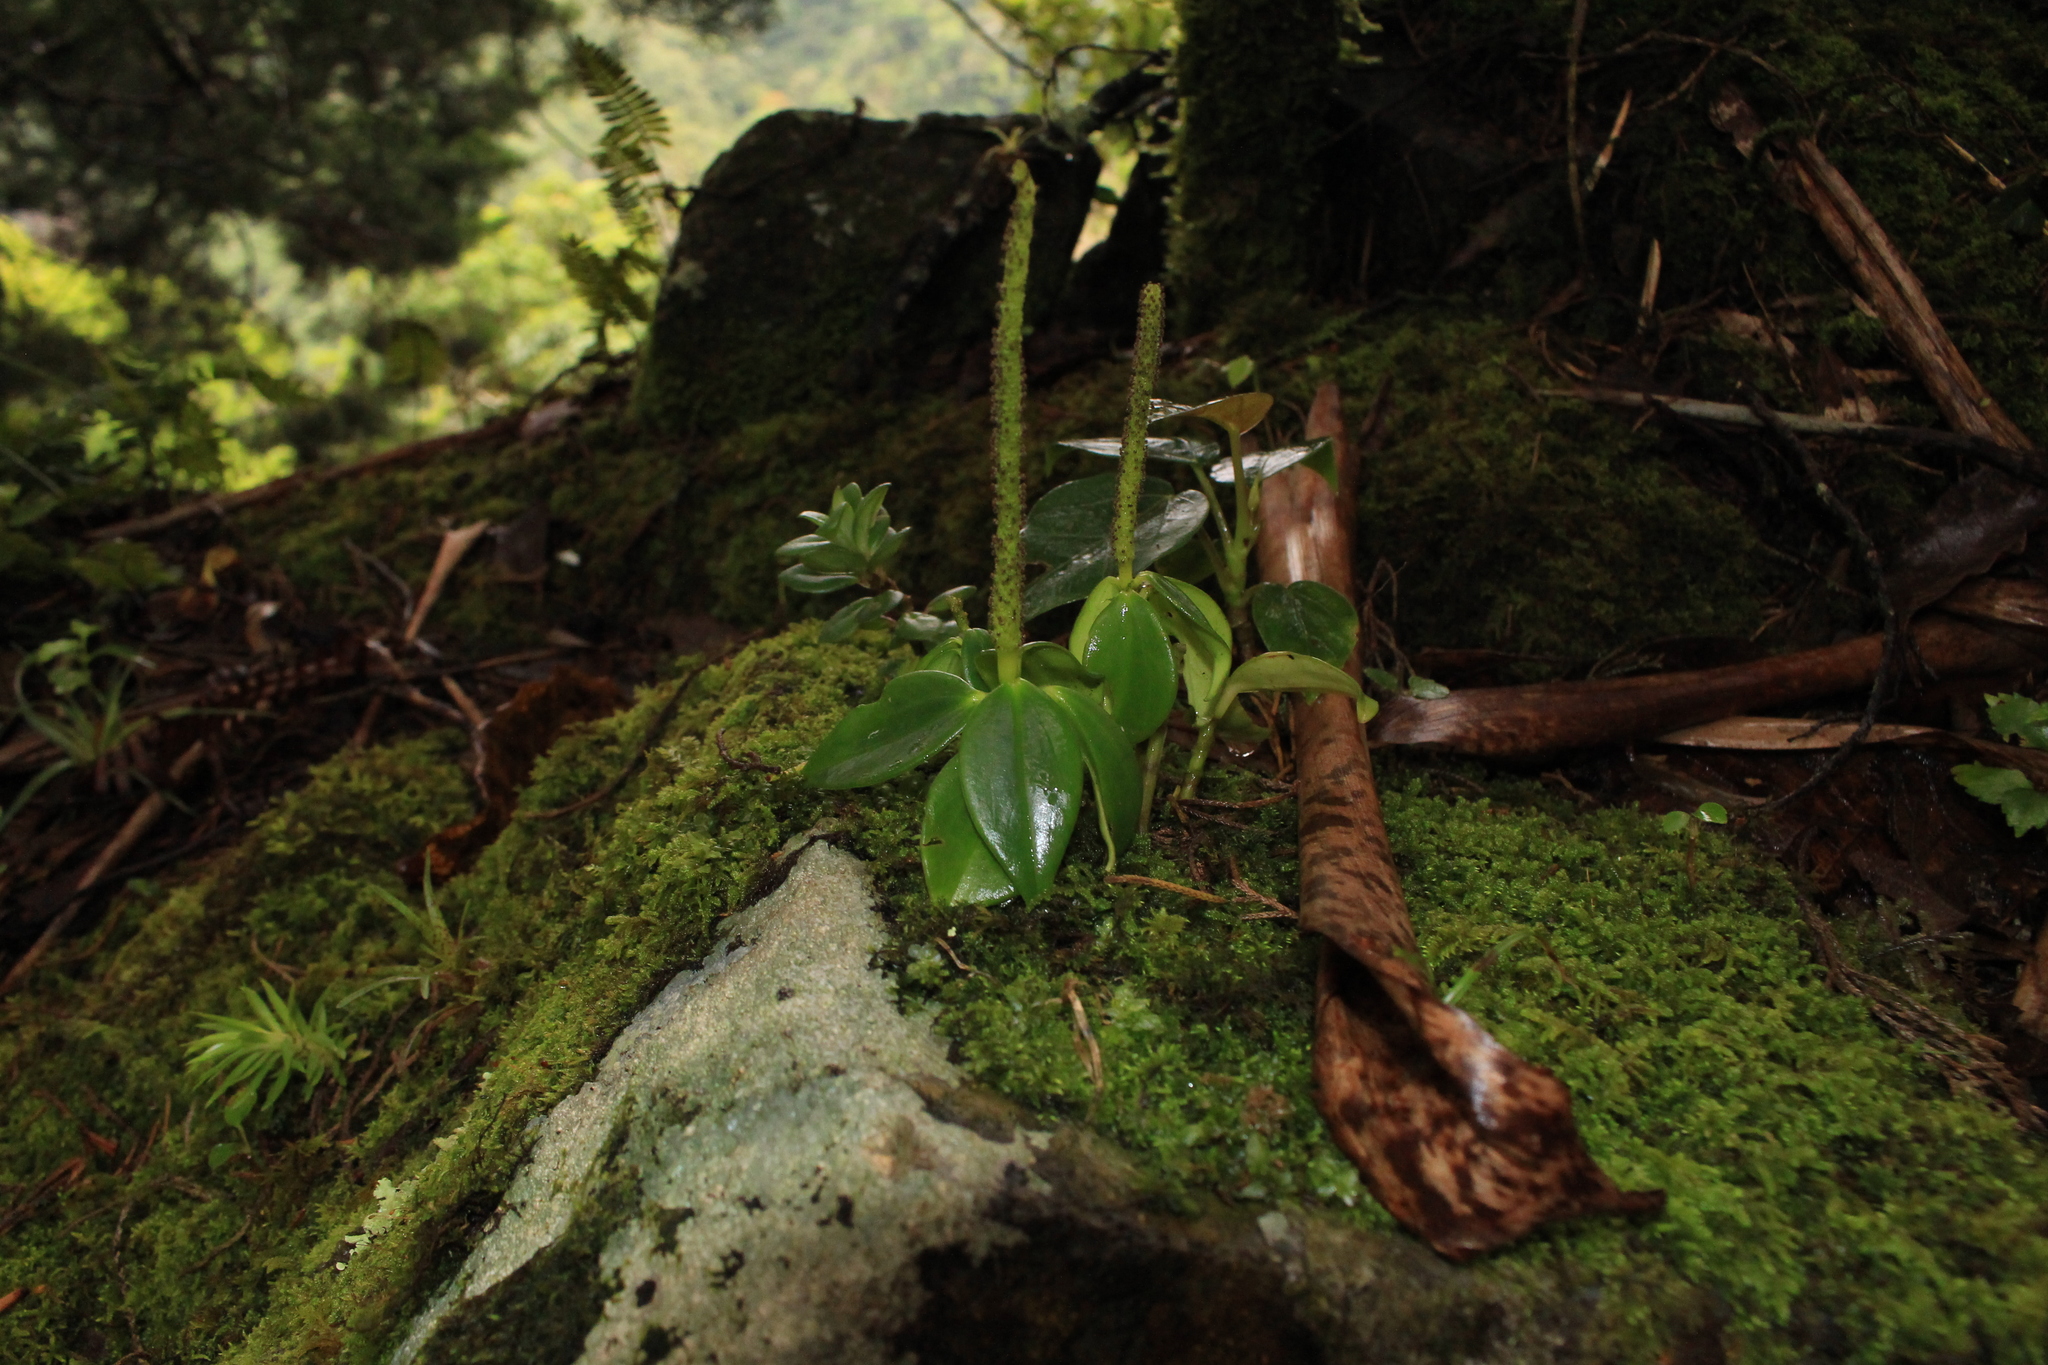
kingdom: Plantae
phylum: Tracheophyta
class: Magnoliopsida
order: Piperales
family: Piperaceae
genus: Peperomia
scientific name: Peperomia san-joseana
